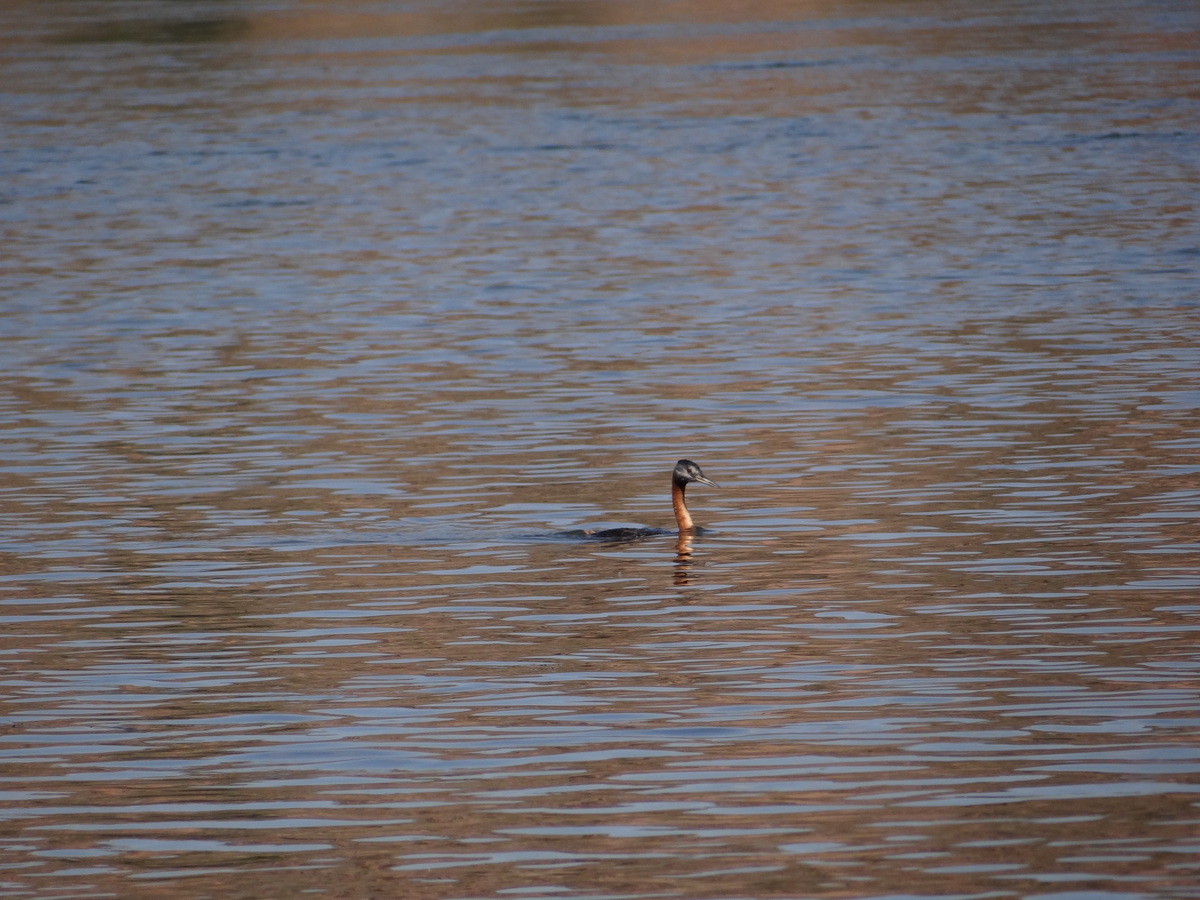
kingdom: Animalia
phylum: Chordata
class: Aves
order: Podicipediformes
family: Podicipedidae
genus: Podiceps
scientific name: Podiceps major
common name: Great grebe
